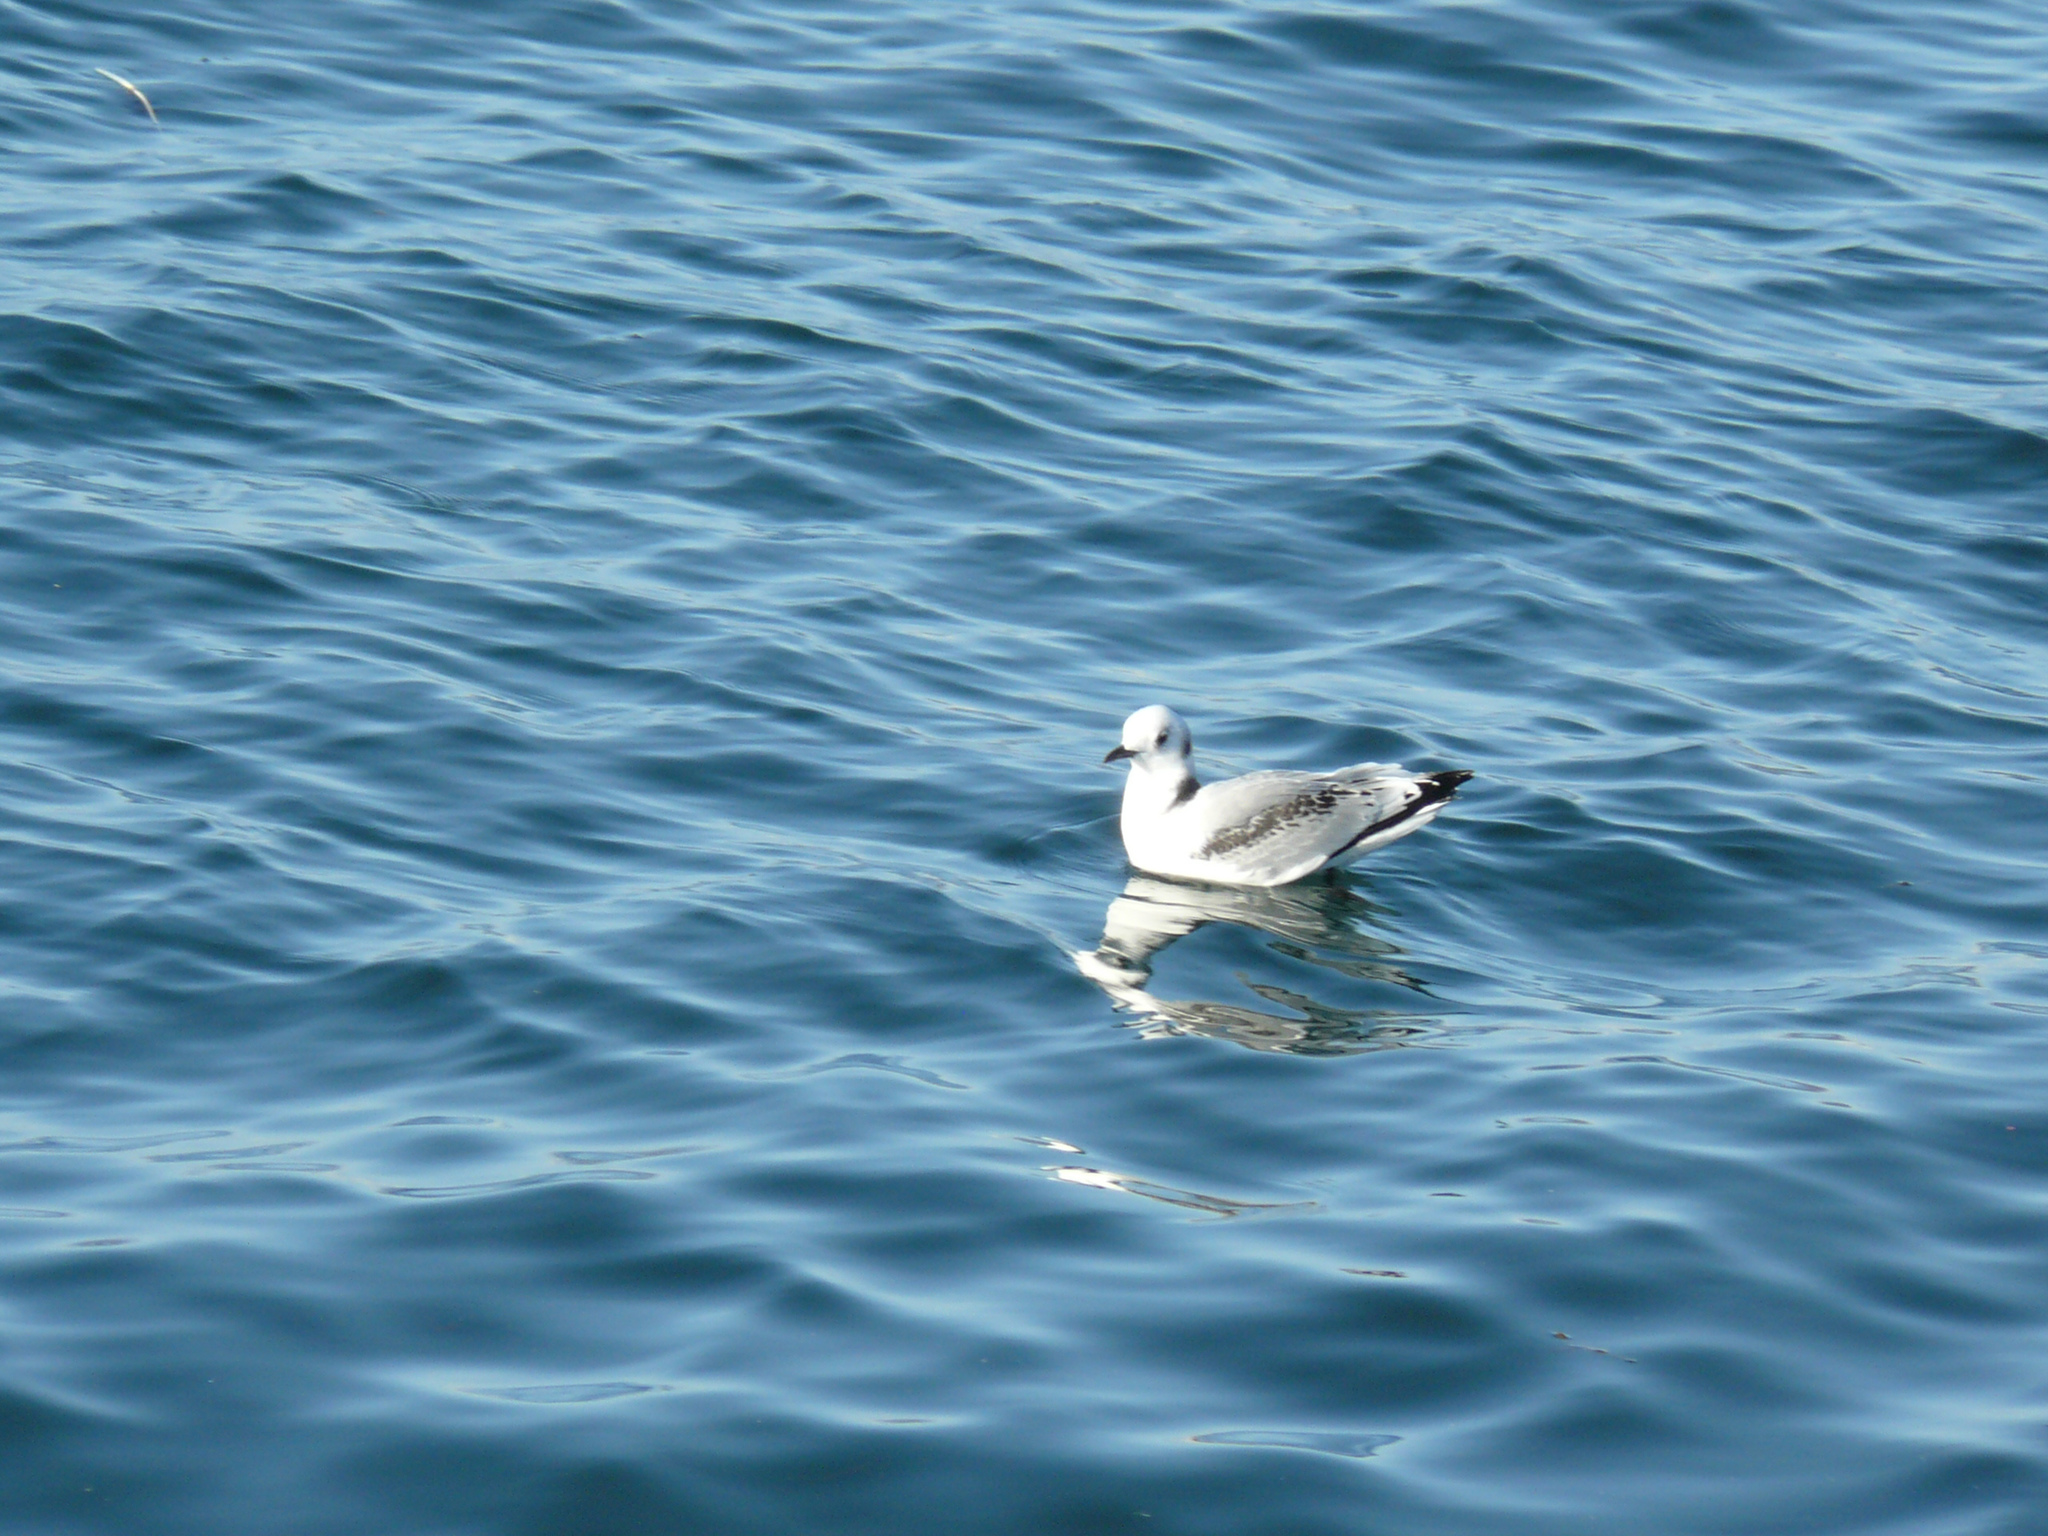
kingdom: Animalia
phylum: Chordata
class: Aves
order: Charadriiformes
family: Laridae
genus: Rissa
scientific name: Rissa tridactyla
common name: Black-legged kittiwake
